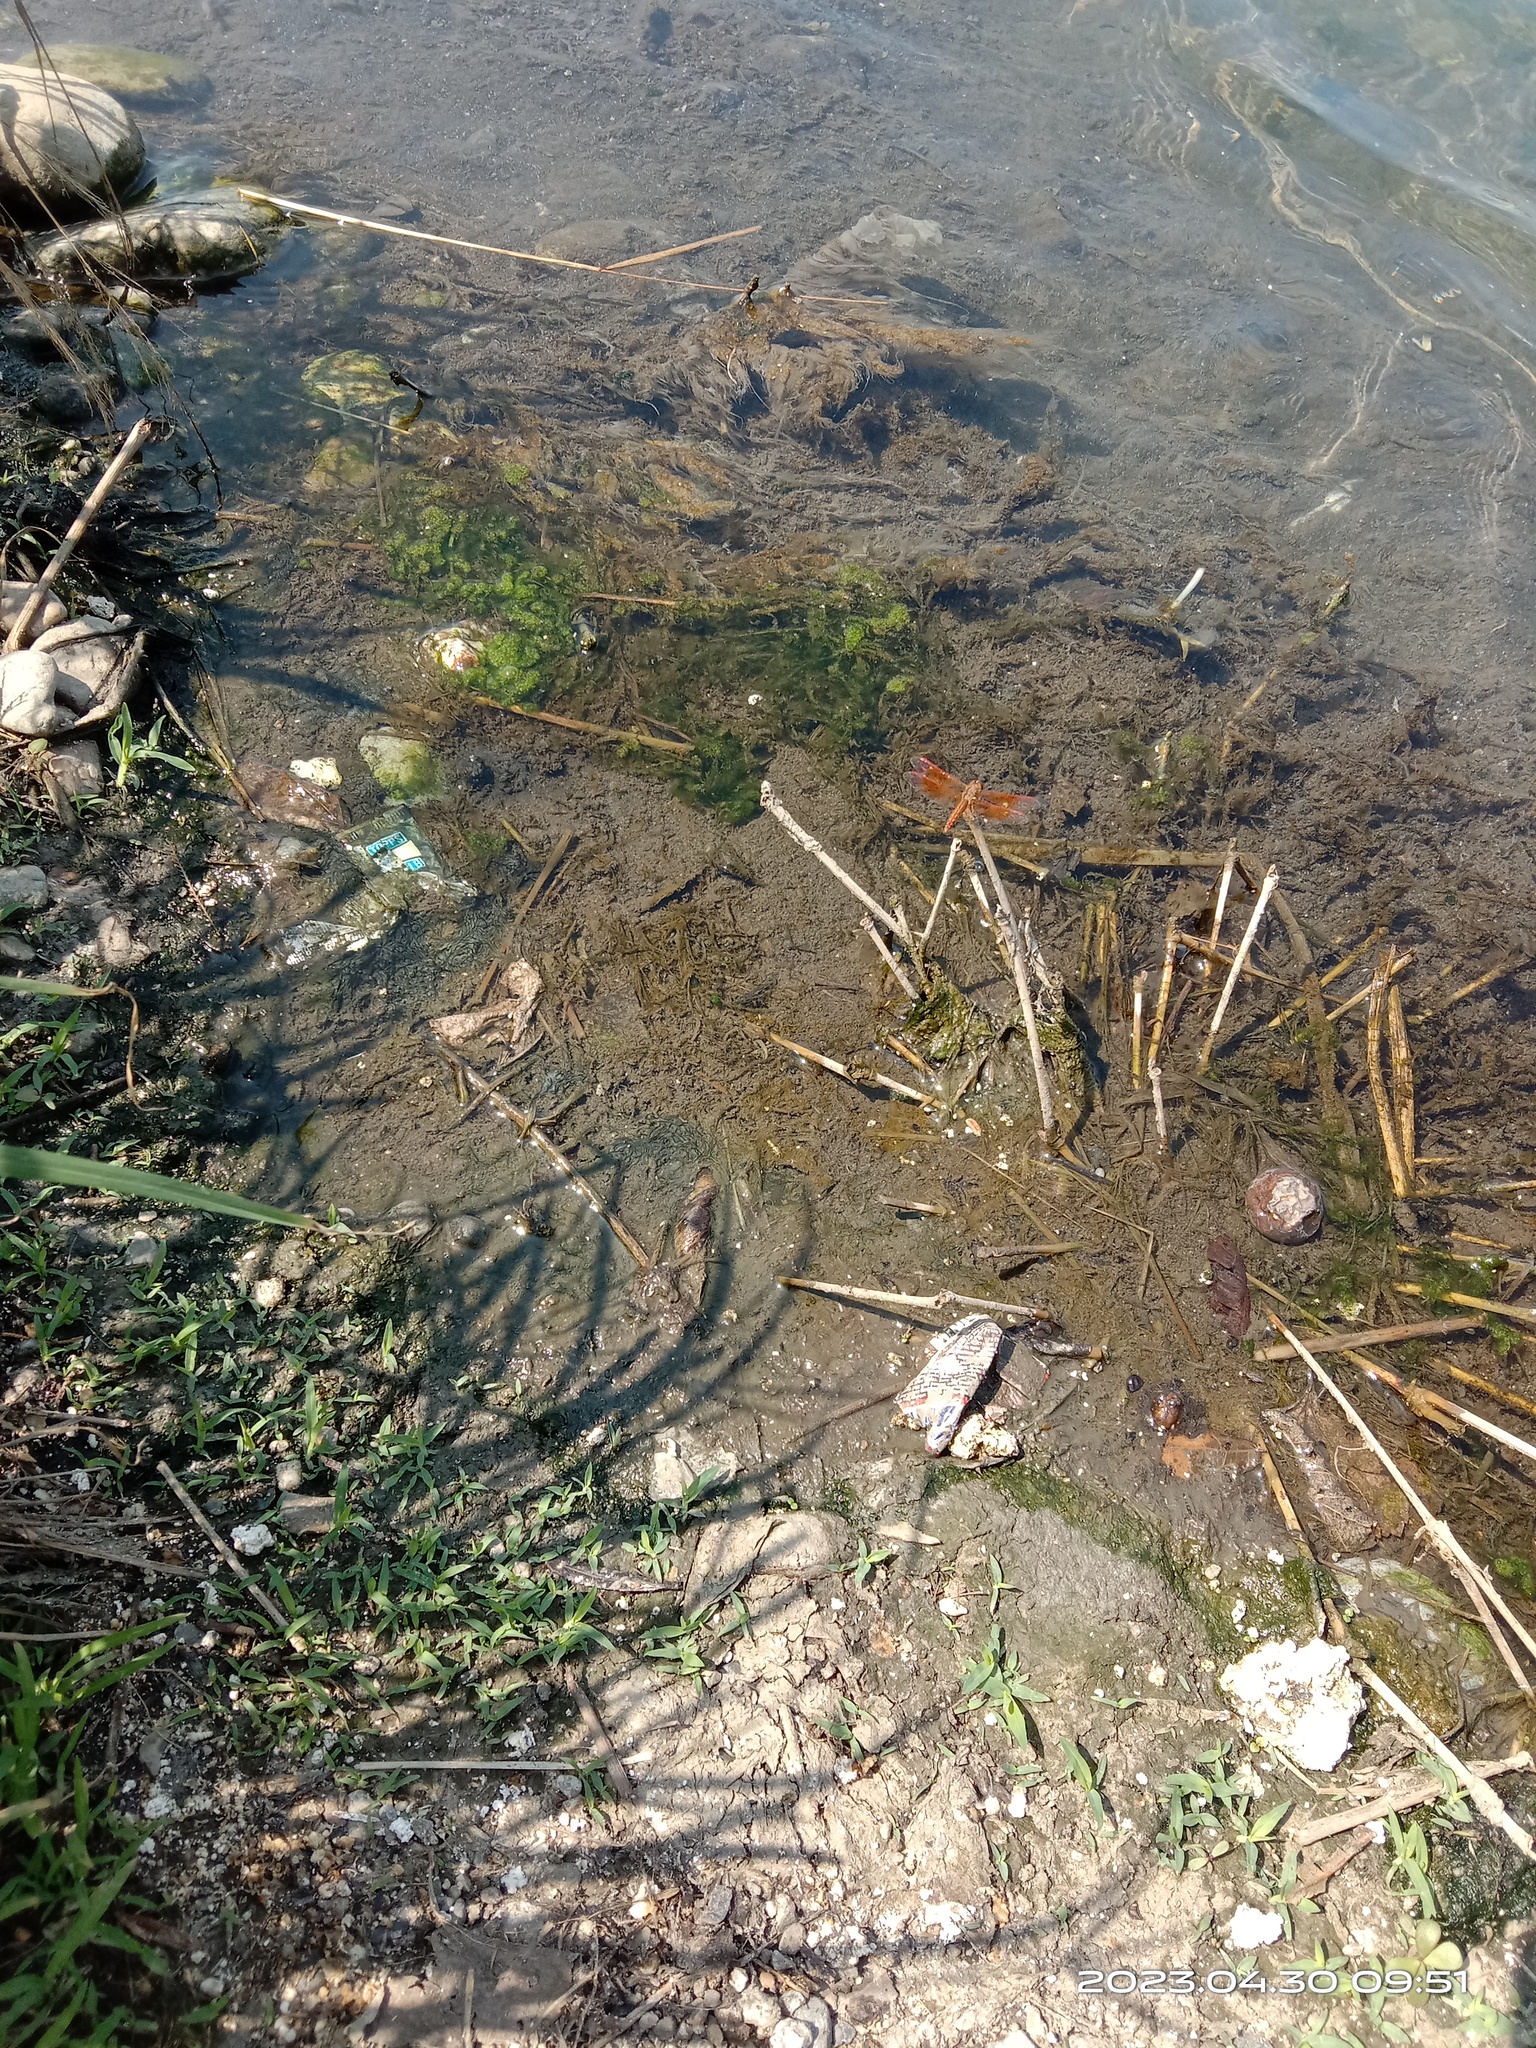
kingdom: Animalia
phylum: Arthropoda
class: Insecta
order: Odonata
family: Libellulidae
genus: Brachythemis
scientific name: Brachythemis contaminata
